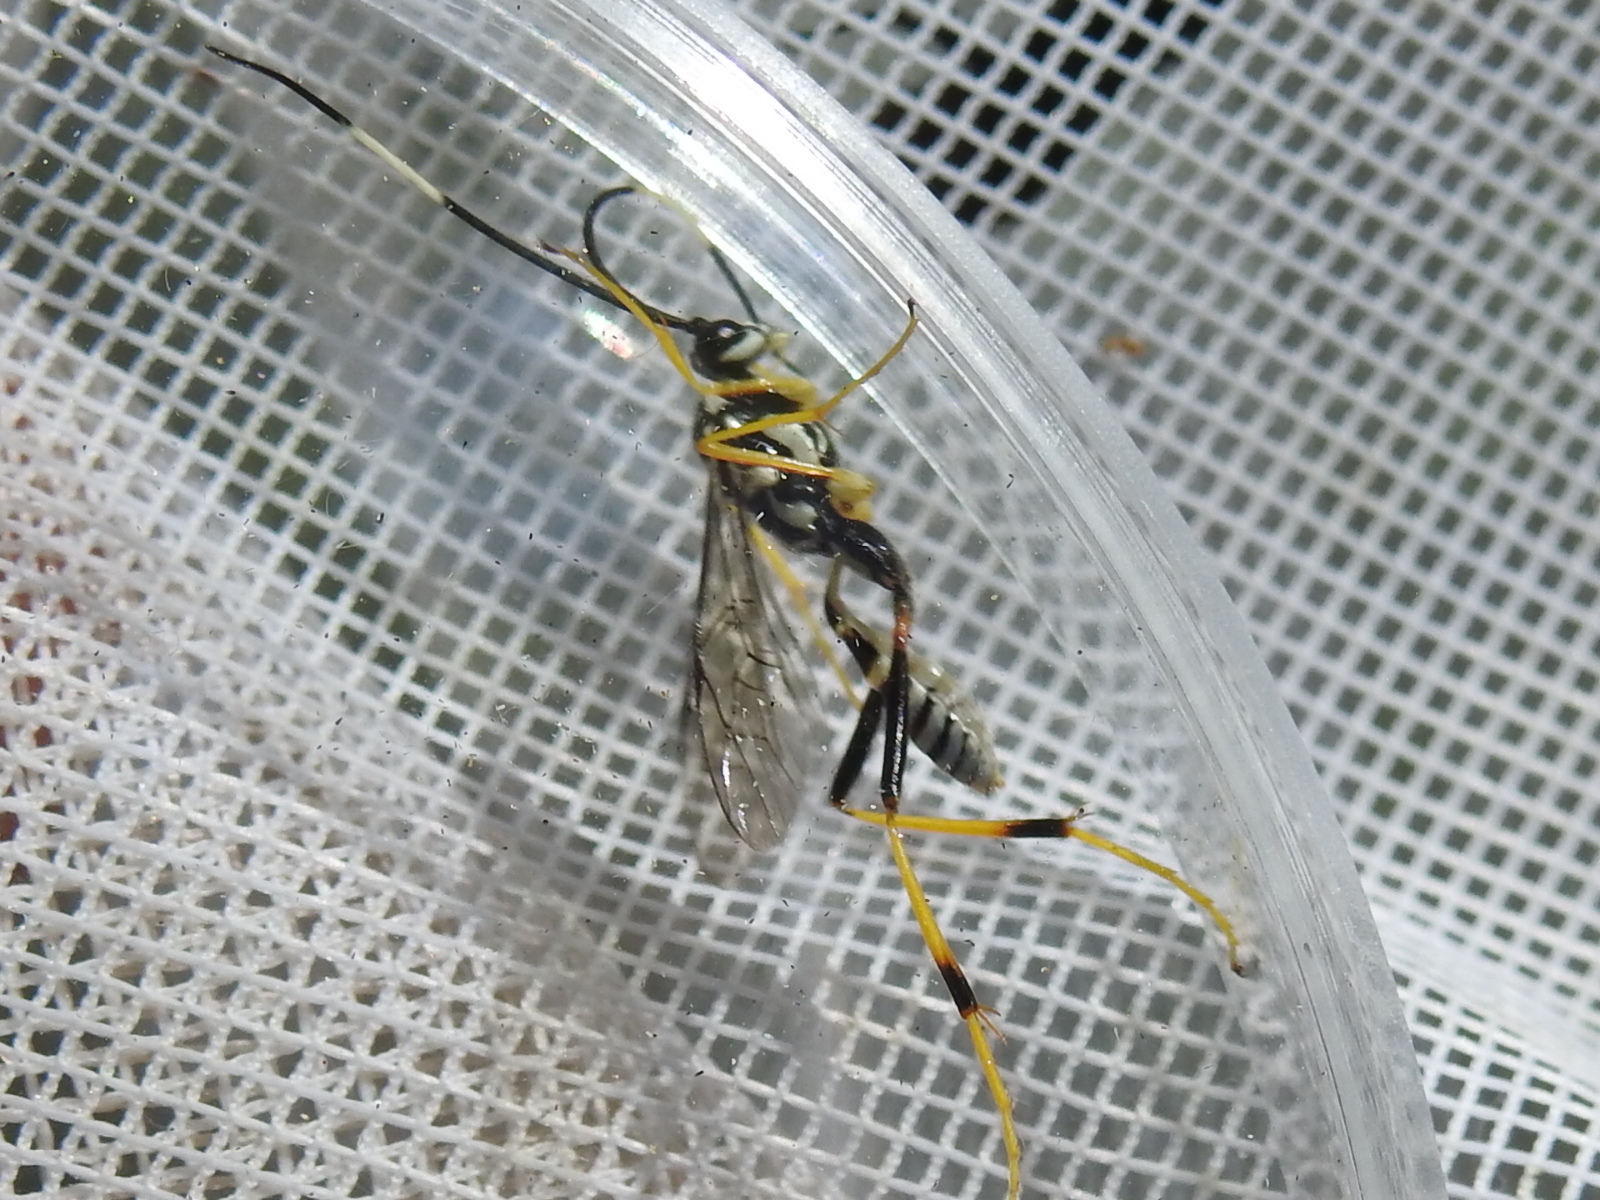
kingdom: Animalia
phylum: Arthropoda
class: Insecta
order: Hymenoptera
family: Ichneumonidae
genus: Cryptanura
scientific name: Cryptanura spinaria
